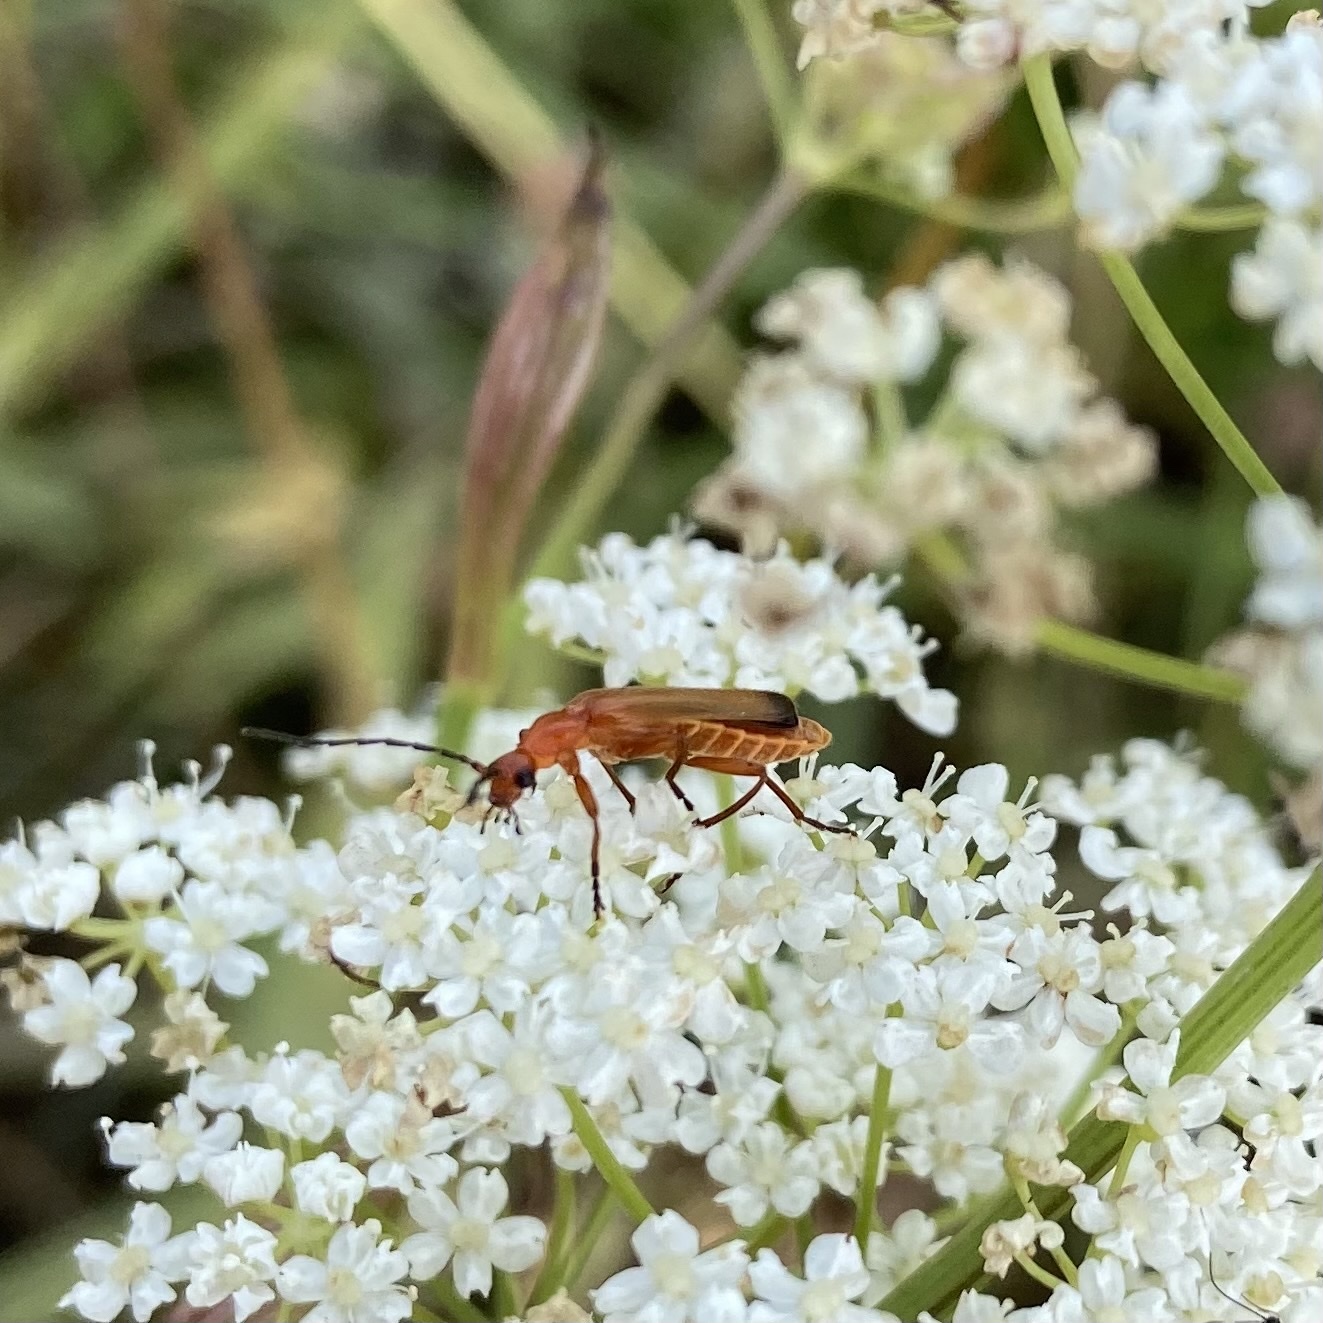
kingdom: Animalia
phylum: Arthropoda
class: Insecta
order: Coleoptera
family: Cantharidae
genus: Rhagonycha
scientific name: Rhagonycha fulva
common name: Common red soldier beetle
